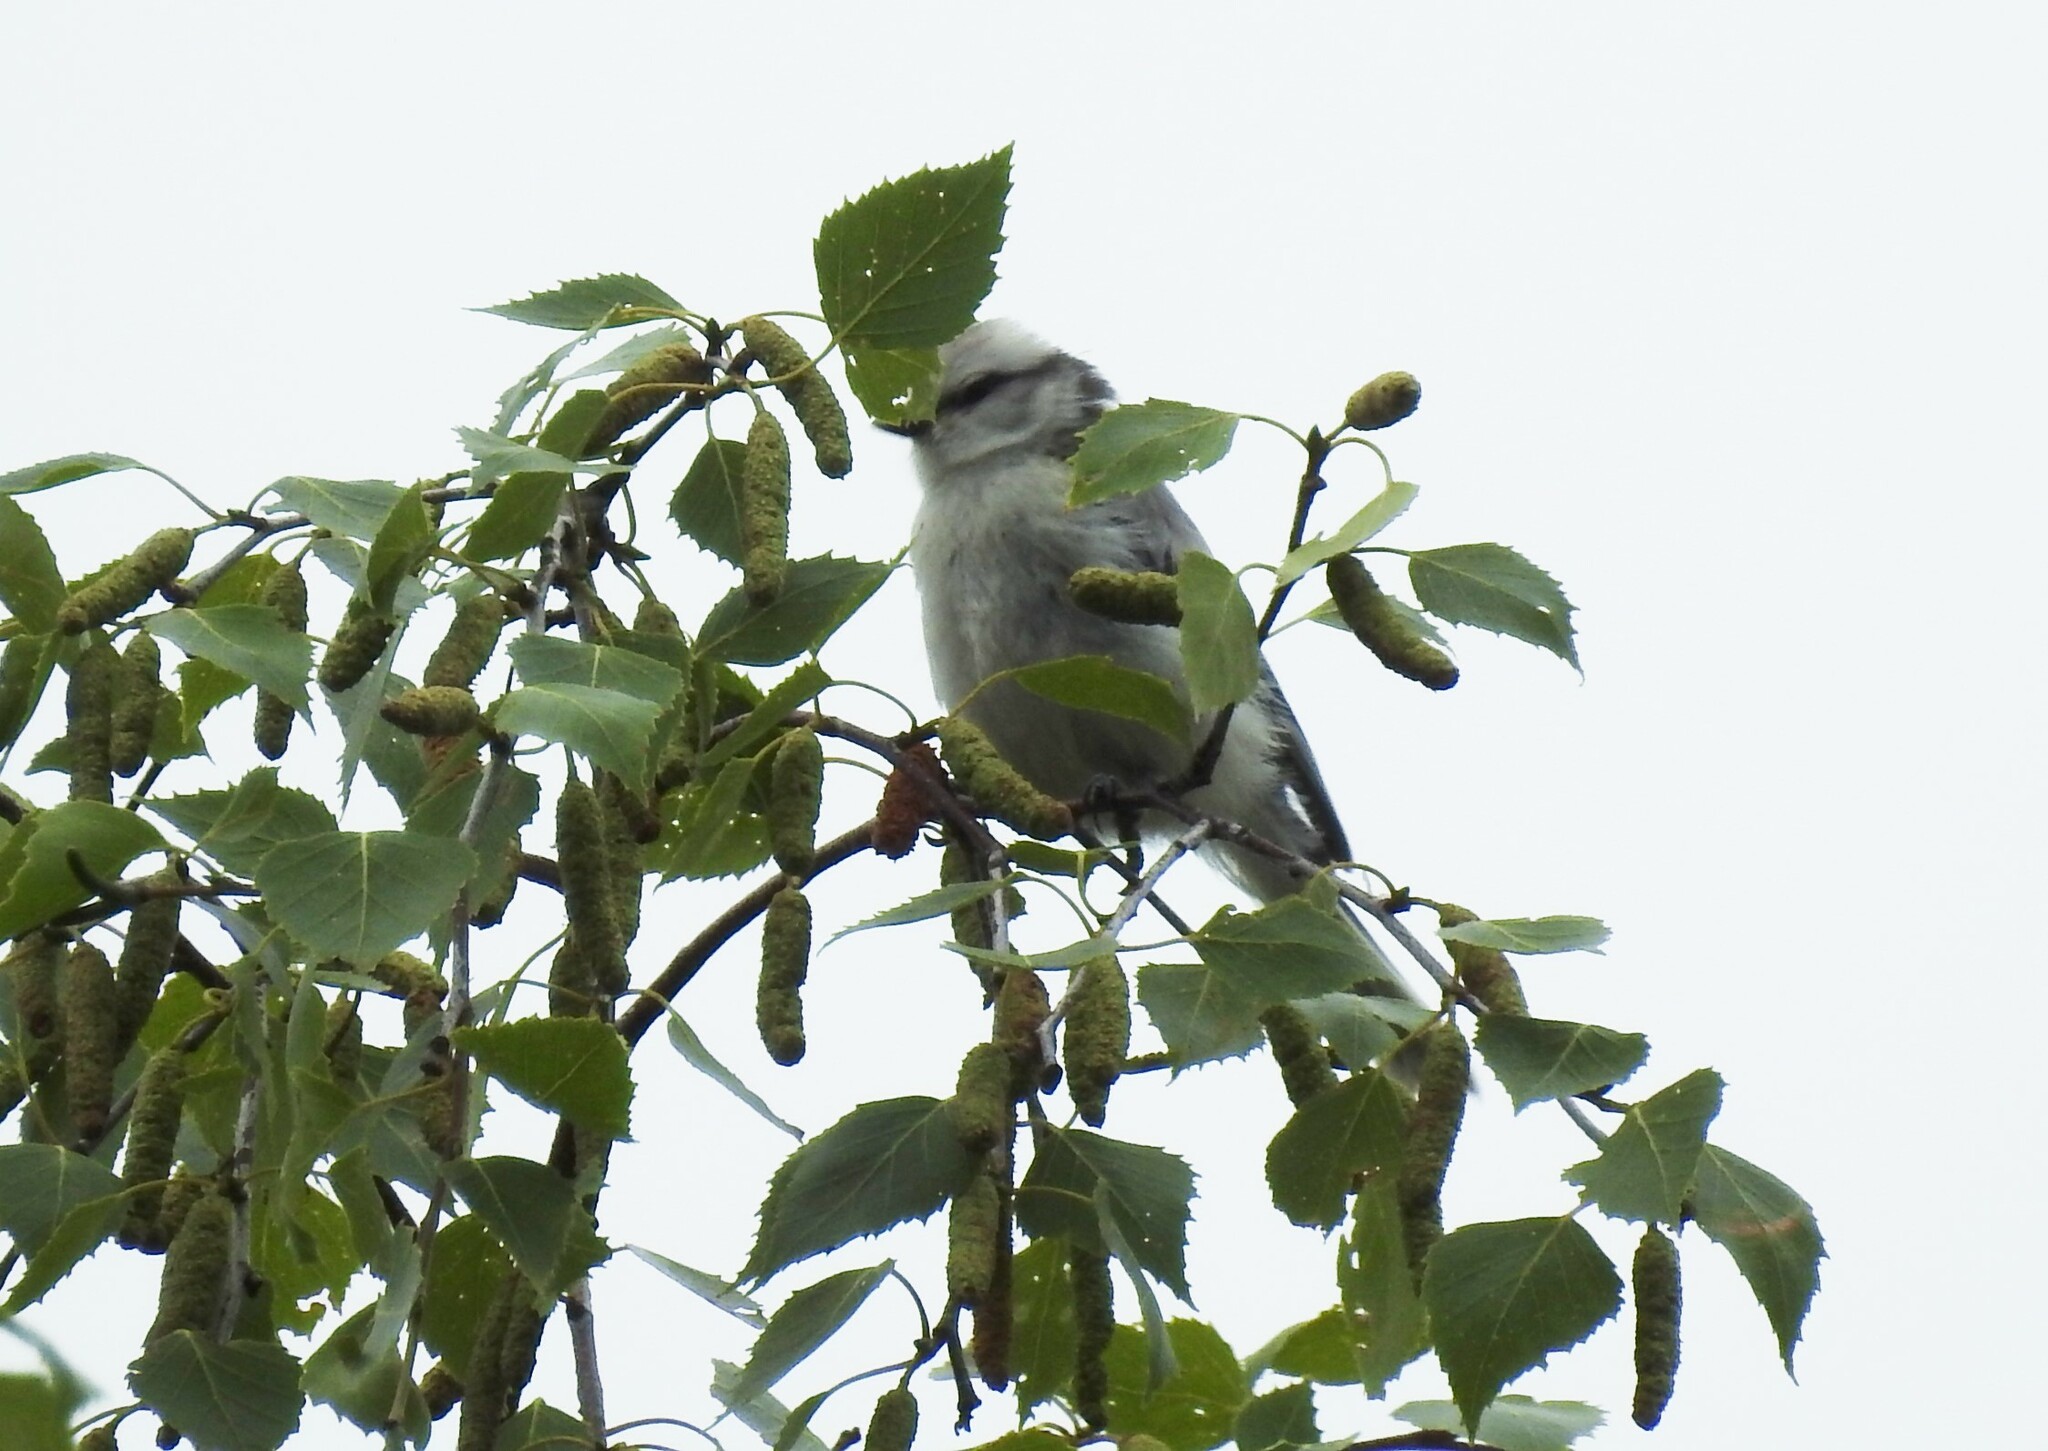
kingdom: Animalia
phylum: Chordata
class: Aves
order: Passeriformes
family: Paridae
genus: Cyanistes
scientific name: Cyanistes cyanus
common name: Azure tit
